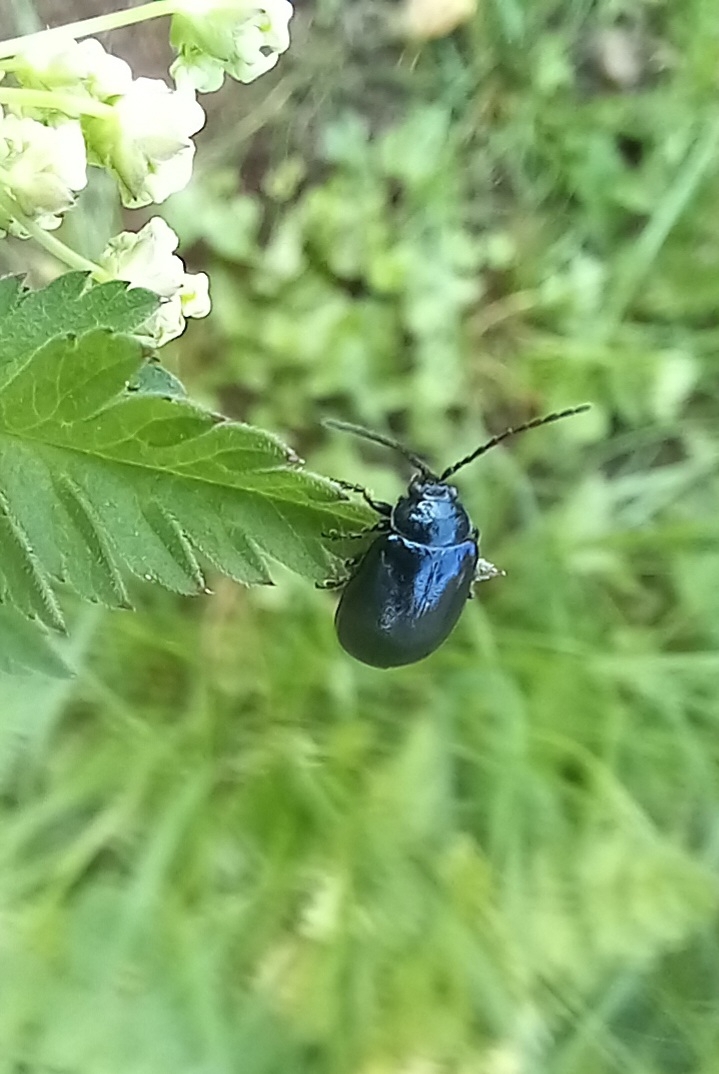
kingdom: Animalia
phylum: Arthropoda
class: Insecta
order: Coleoptera
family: Chrysomelidae
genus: Agelastica
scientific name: Agelastica alni
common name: Alder leaf beetle
